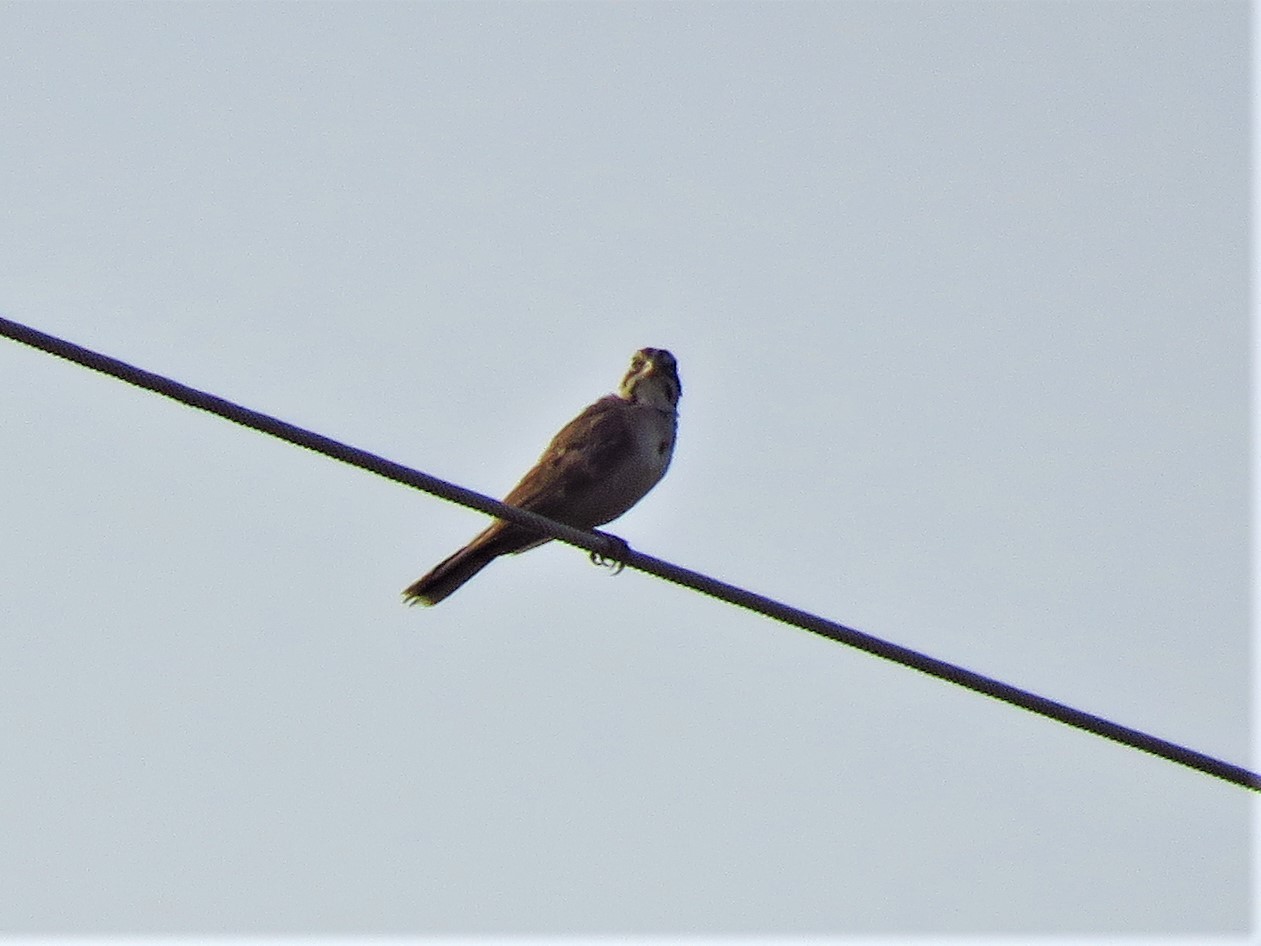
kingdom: Animalia
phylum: Chordata
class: Aves
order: Passeriformes
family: Passerellidae
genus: Chondestes
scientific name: Chondestes grammacus
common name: Lark sparrow
